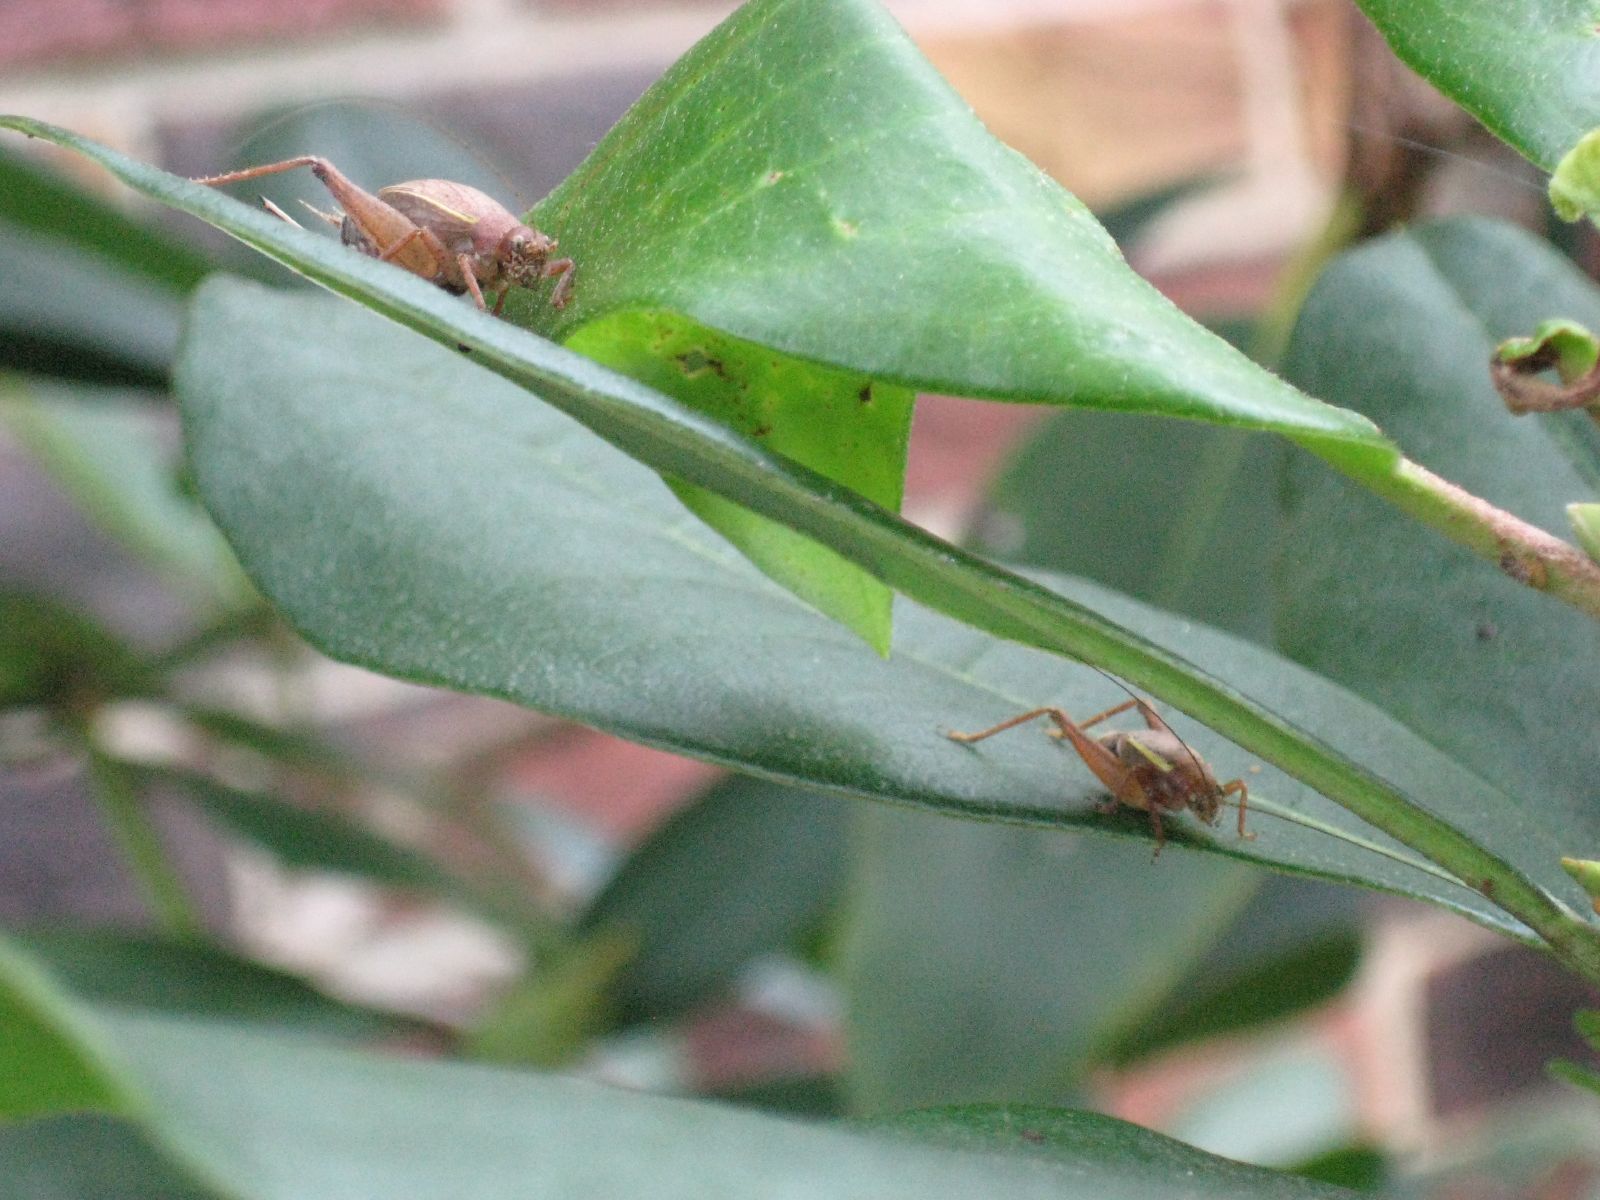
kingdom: Animalia
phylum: Arthropoda
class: Insecta
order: Orthoptera
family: Gryllidae
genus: Hapithus
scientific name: Hapithus agitator
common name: Restless bush cricket
